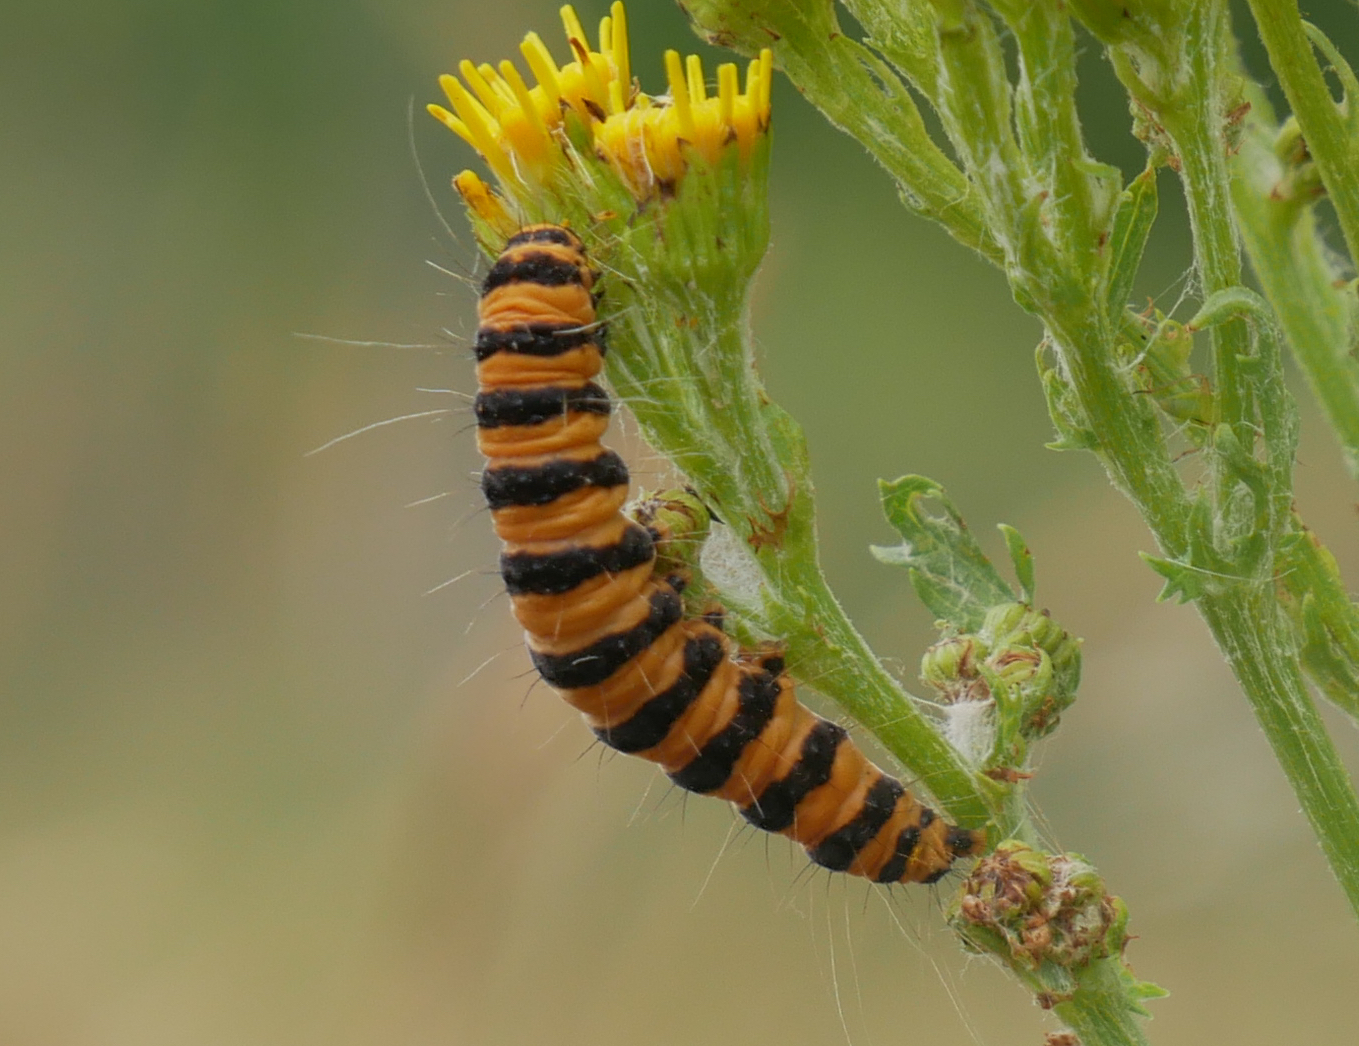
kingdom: Animalia
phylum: Arthropoda
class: Insecta
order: Lepidoptera
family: Erebidae
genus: Tyria
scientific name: Tyria jacobaeae
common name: Cinnabar
